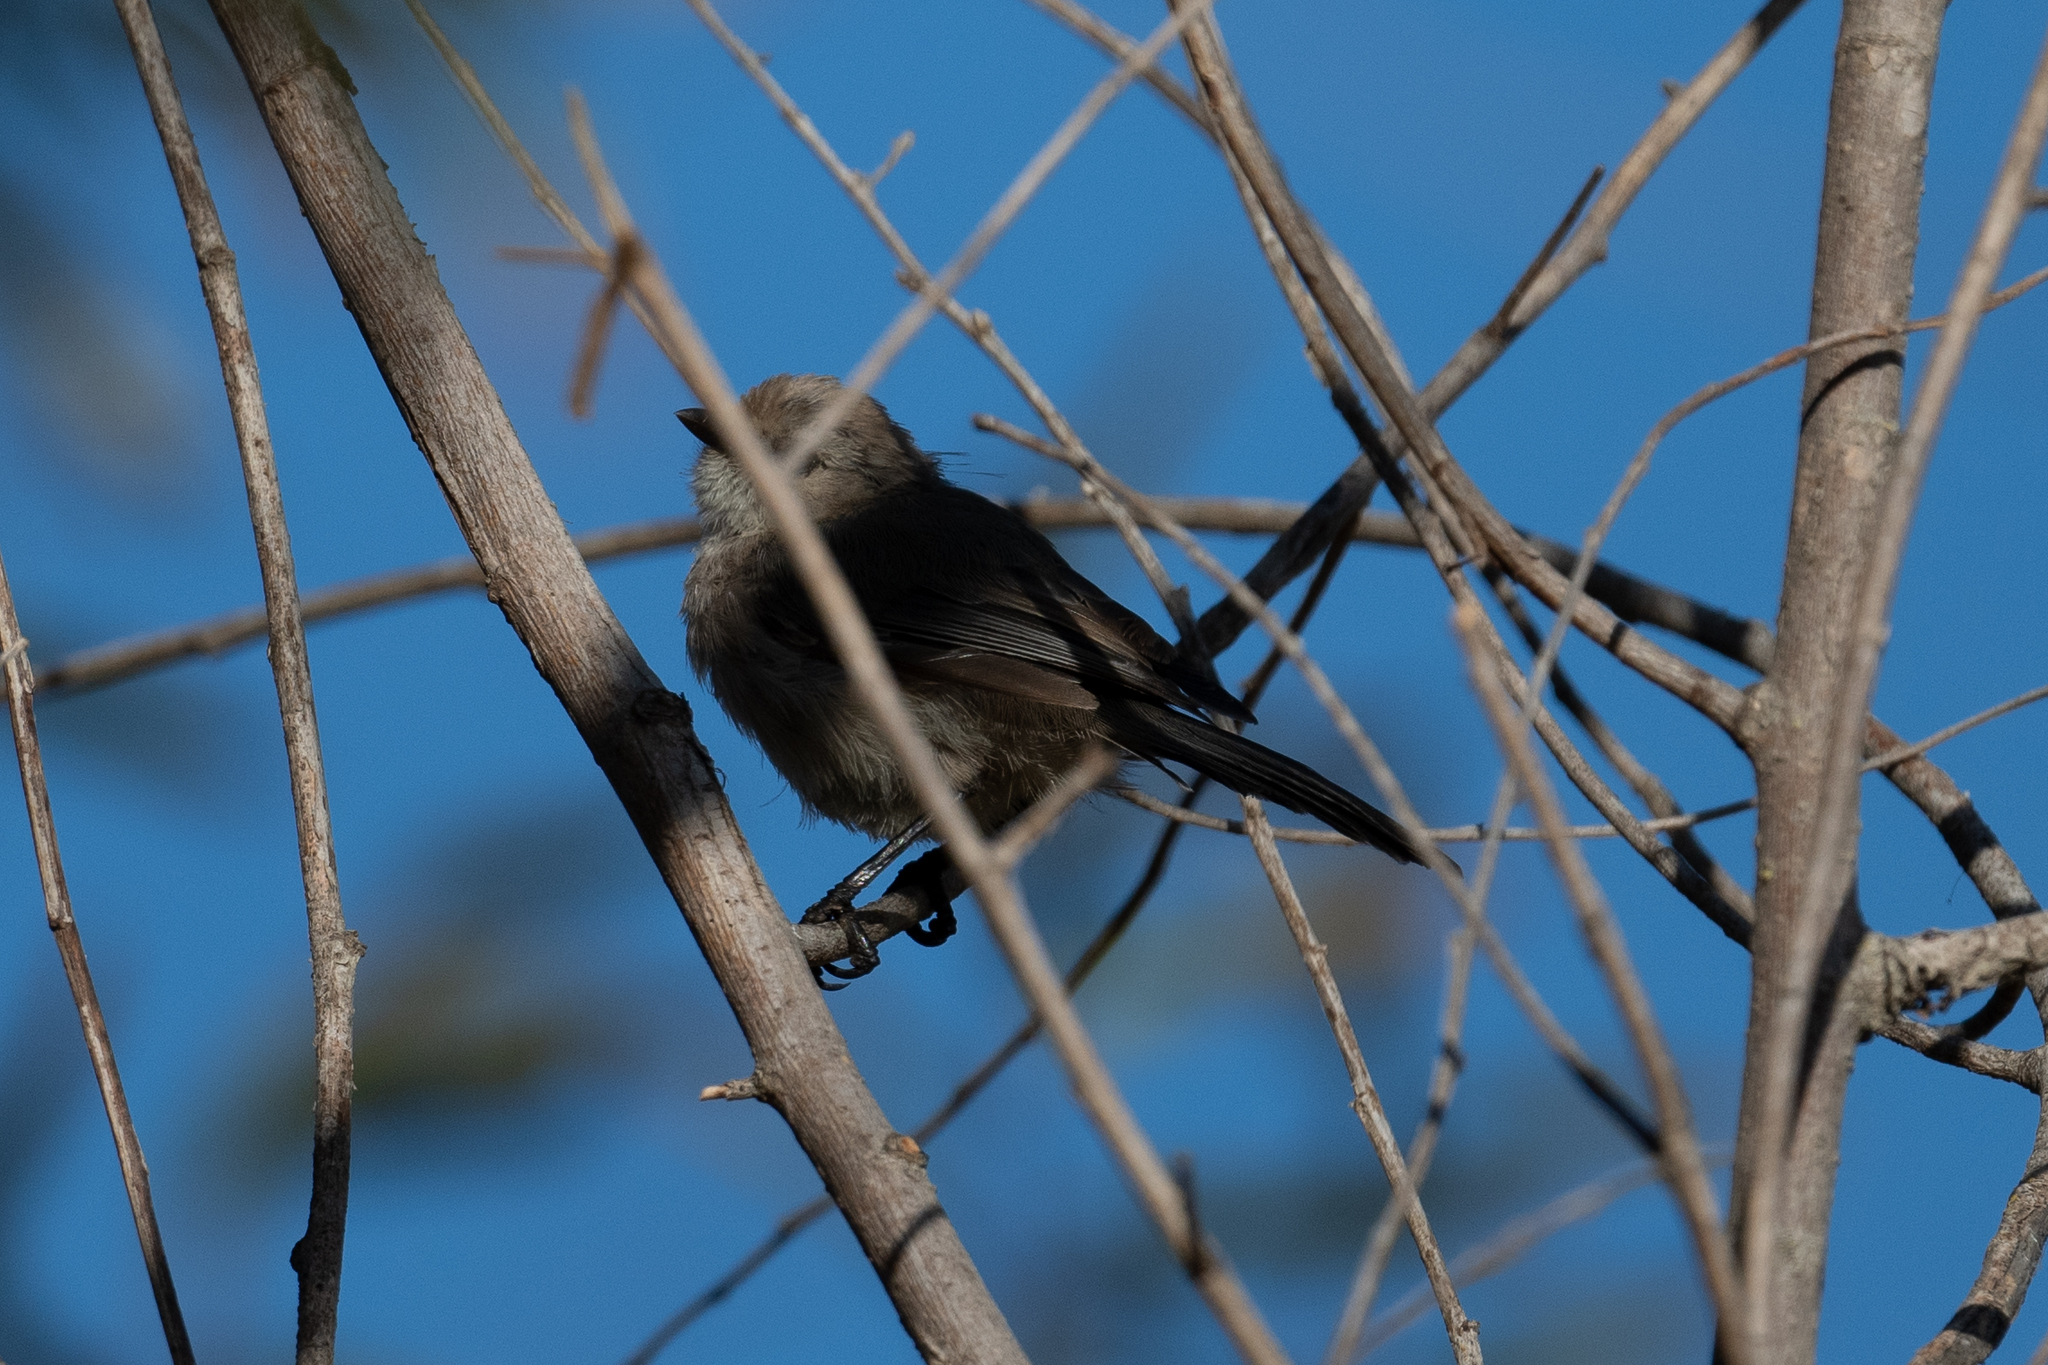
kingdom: Animalia
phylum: Chordata
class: Aves
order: Passeriformes
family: Aegithalidae
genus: Psaltriparus
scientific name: Psaltriparus minimus
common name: American bushtit
